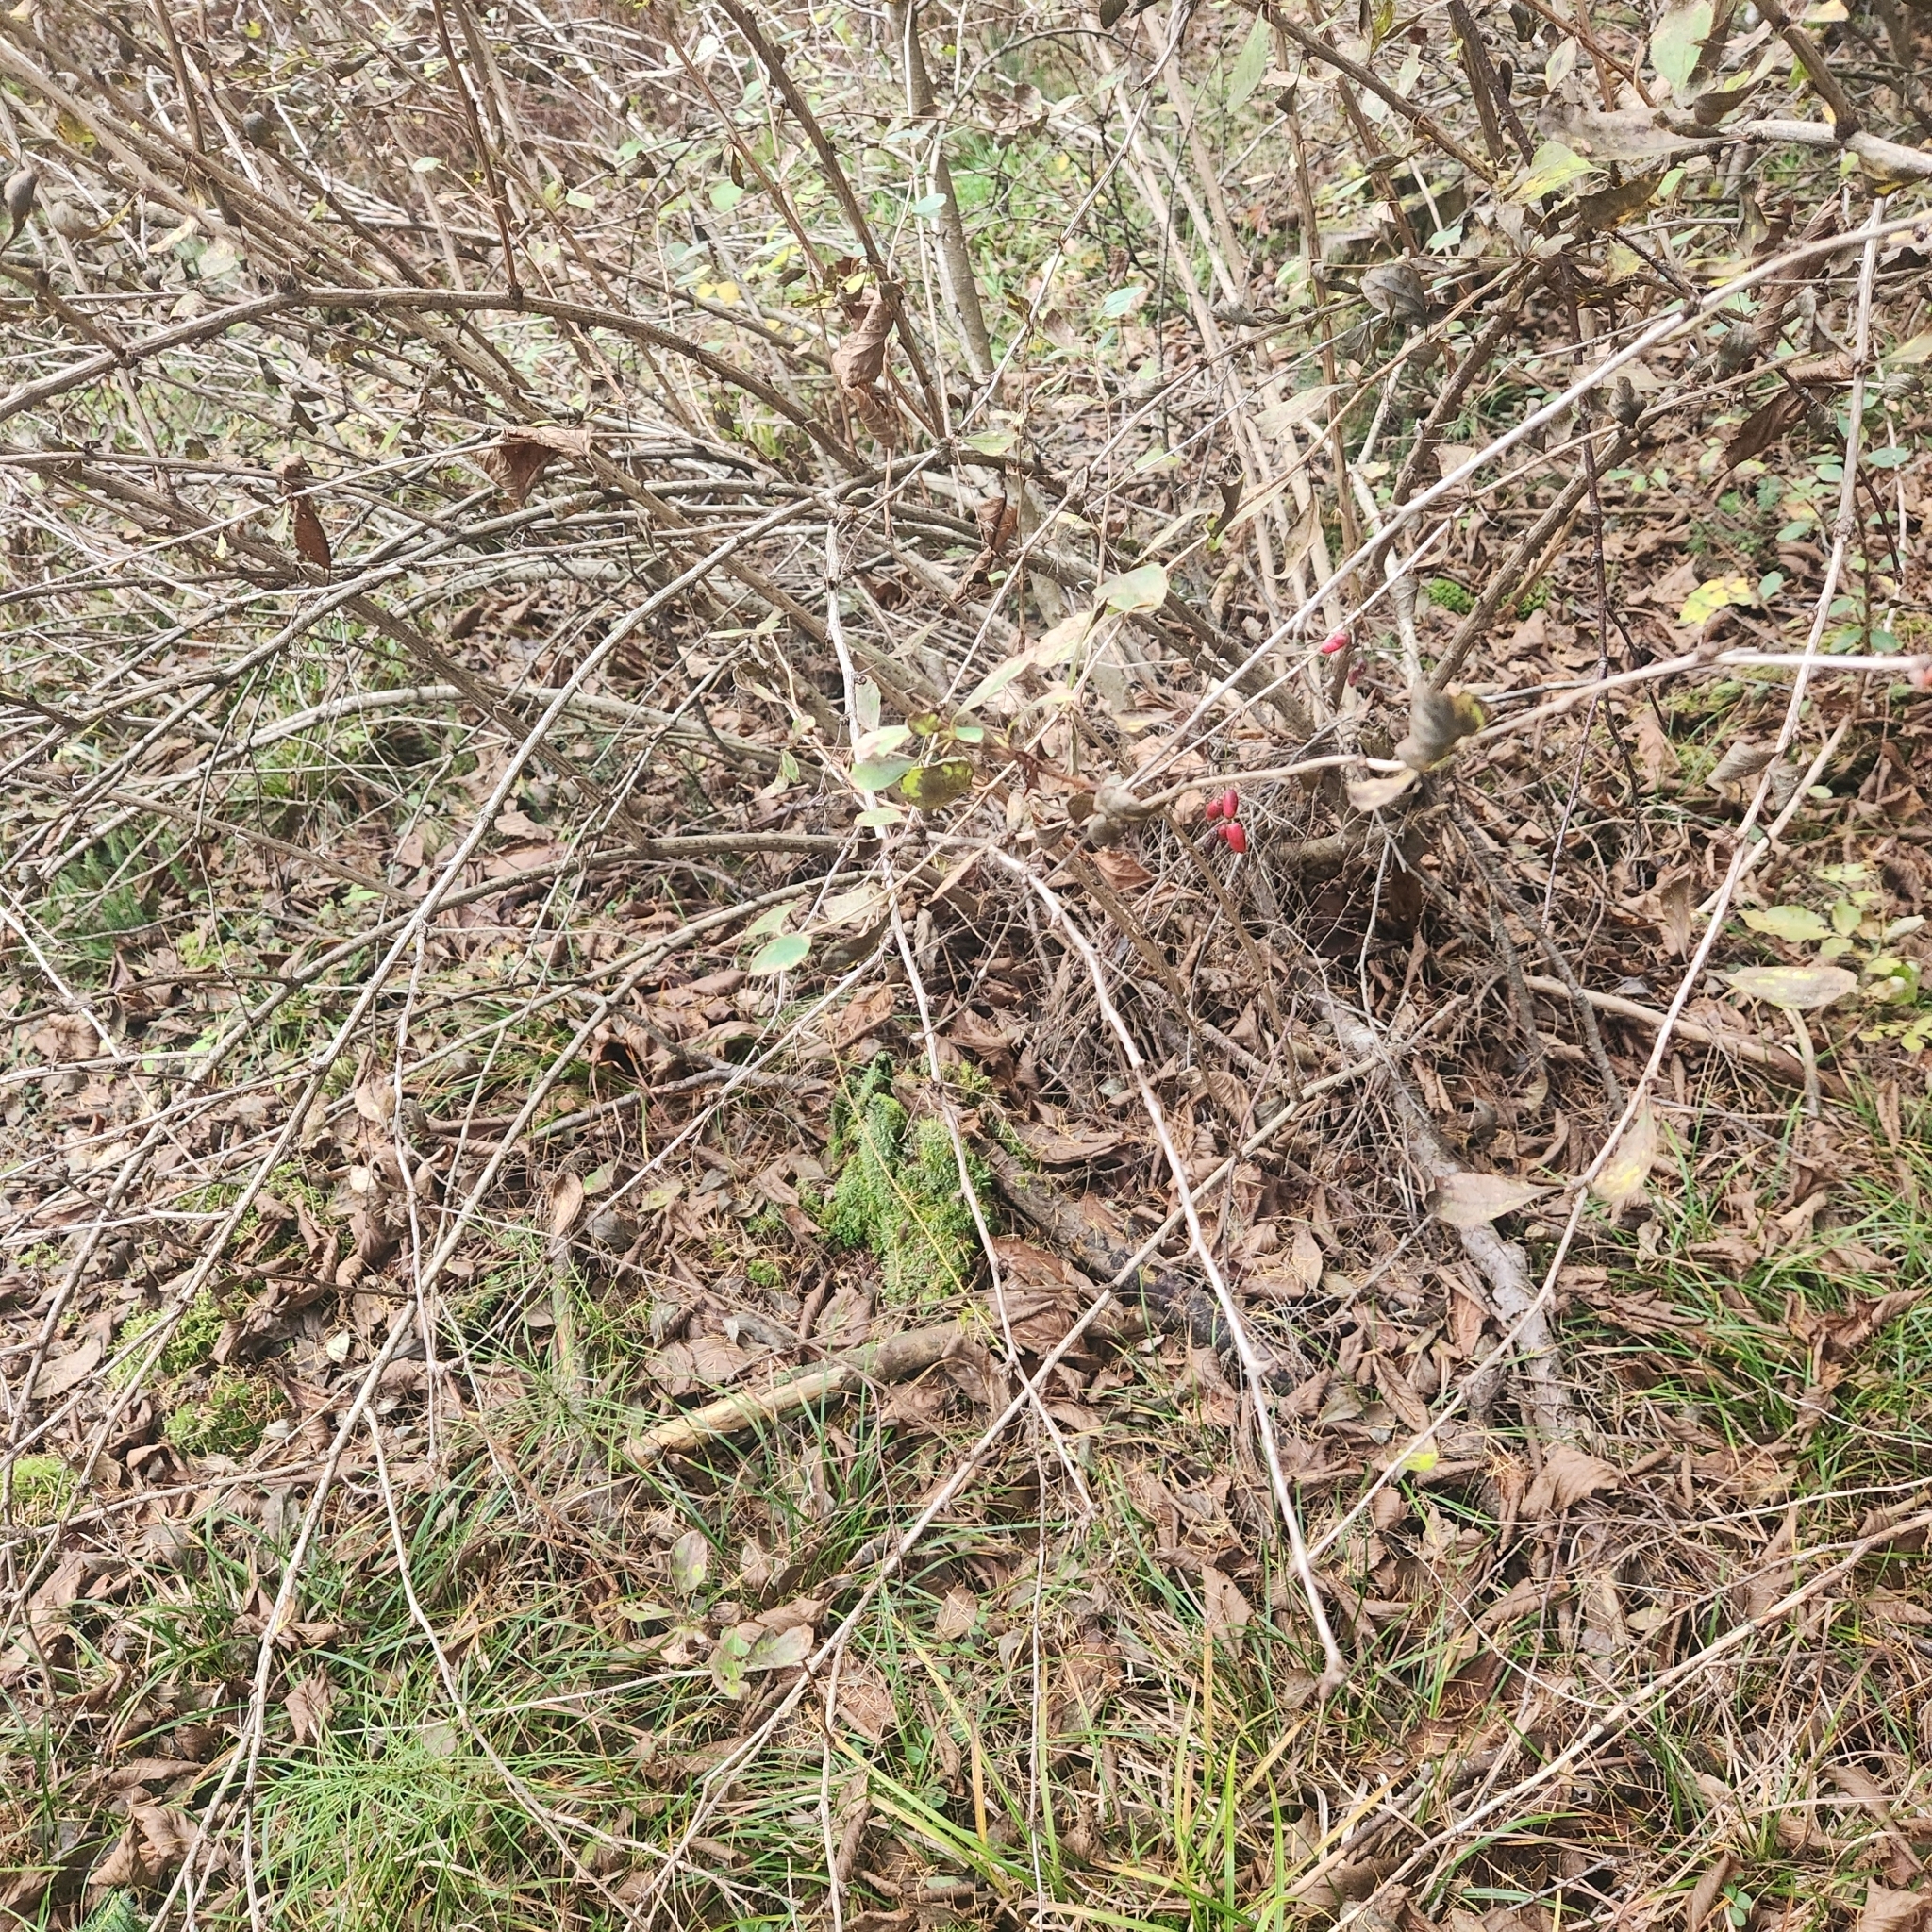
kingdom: Plantae
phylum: Tracheophyta
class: Magnoliopsida
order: Ranunculales
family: Berberidaceae
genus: Berberis
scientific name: Berberis thunbergii
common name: Japanese barberry
